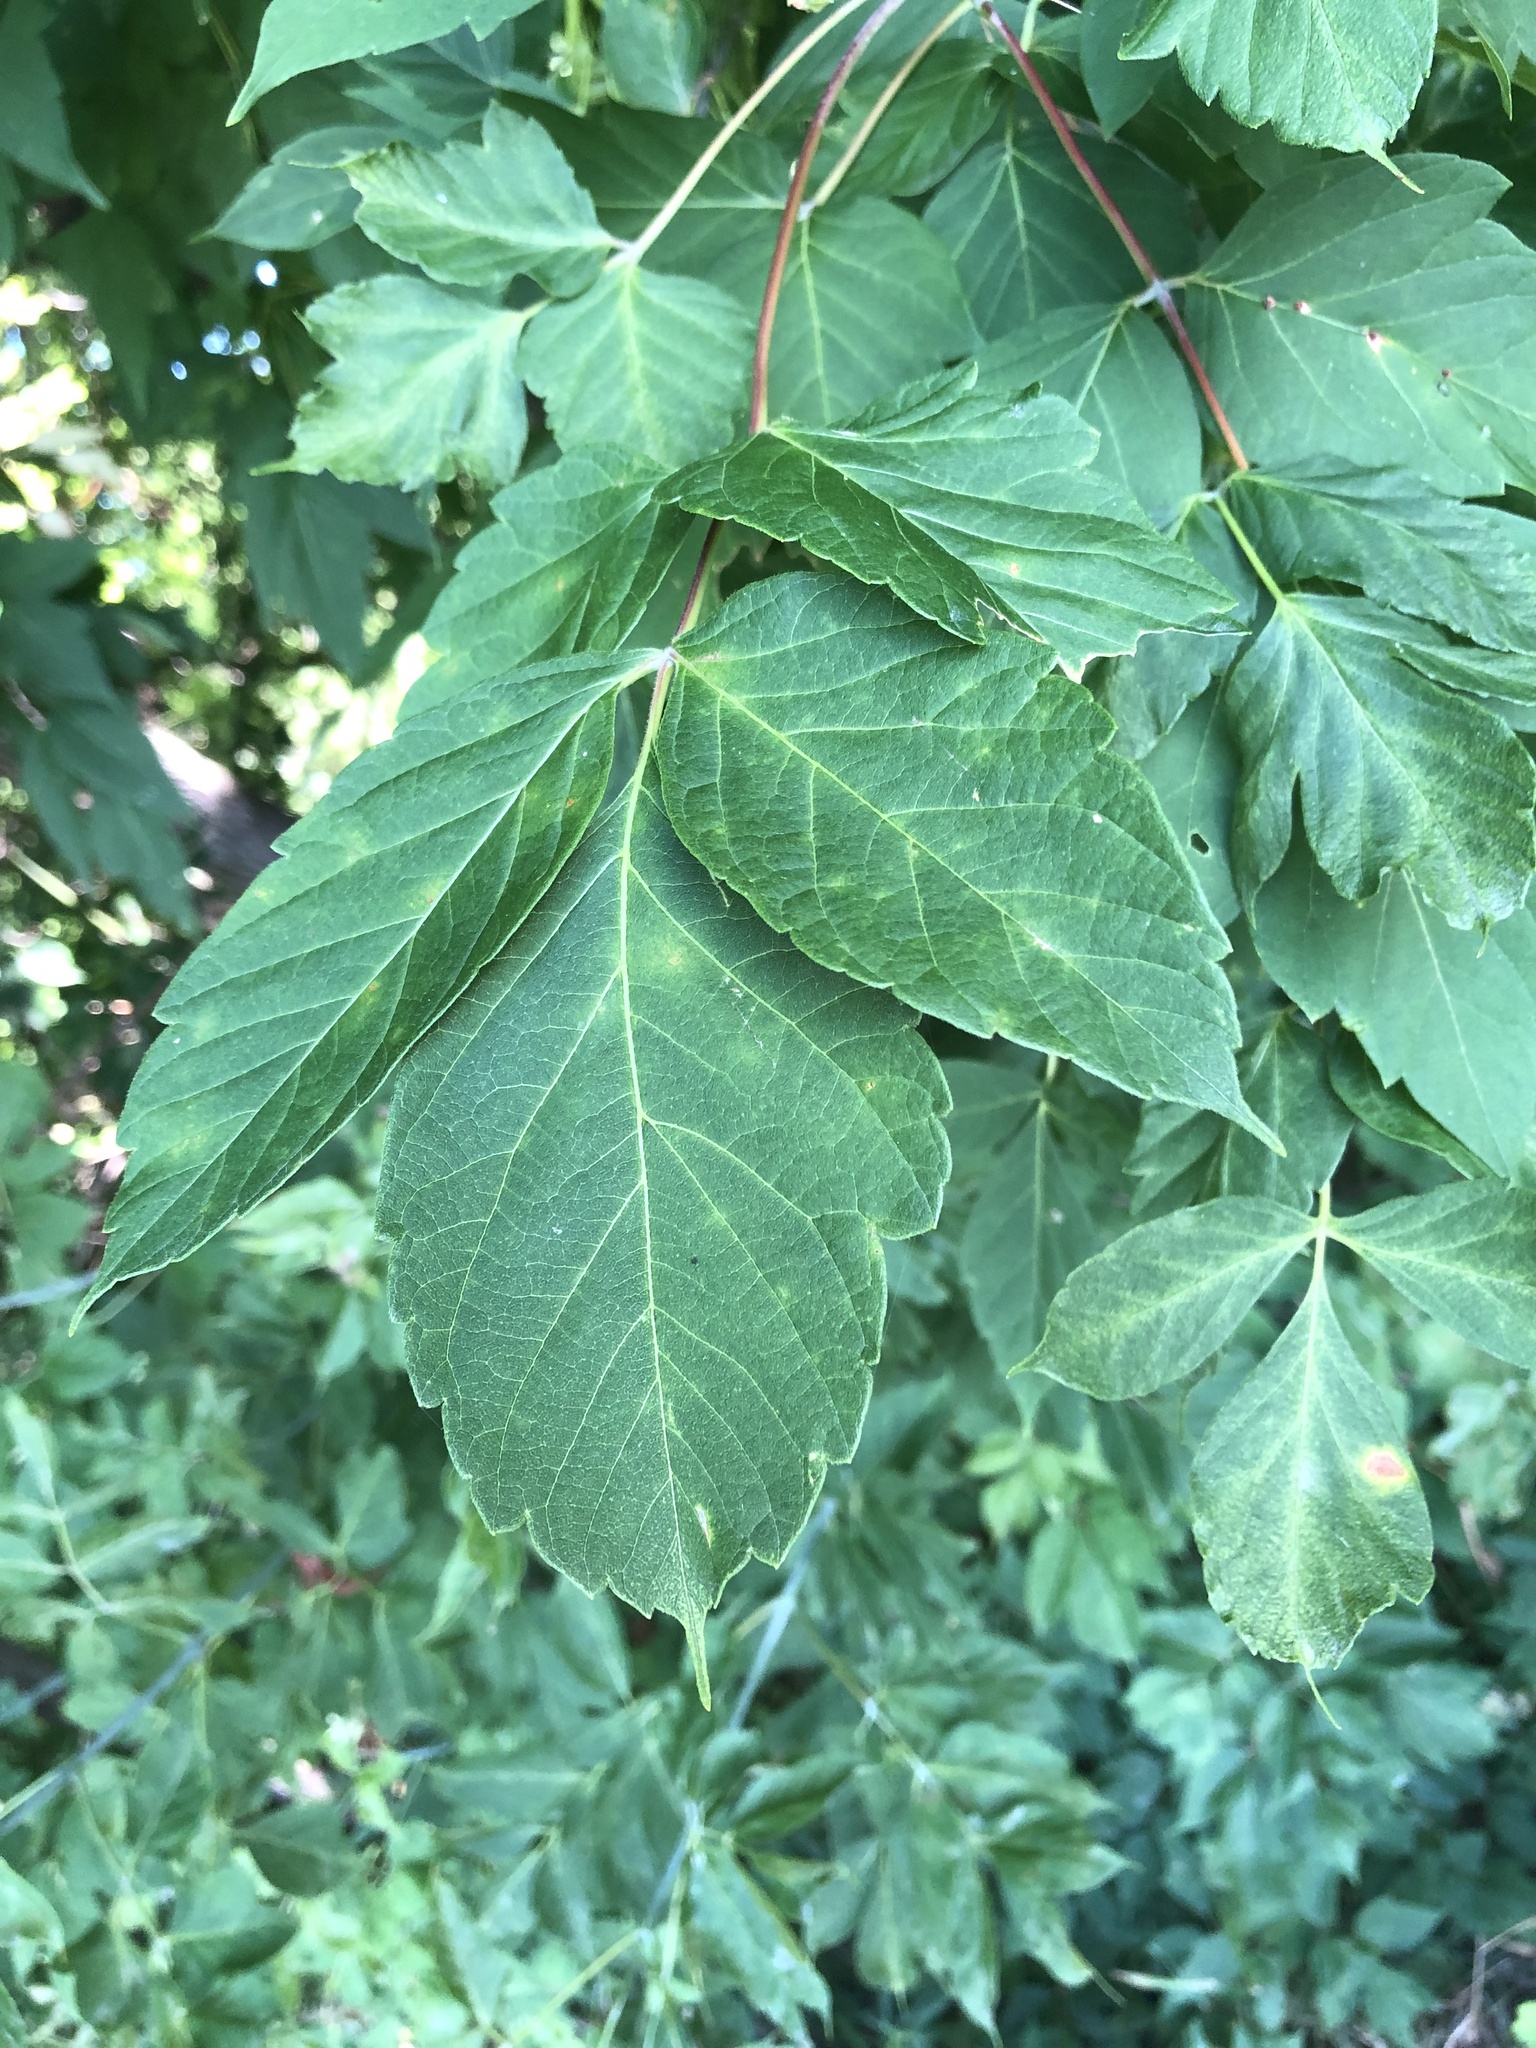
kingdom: Plantae
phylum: Tracheophyta
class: Magnoliopsida
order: Sapindales
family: Sapindaceae
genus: Acer
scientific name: Acer negundo
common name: Ashleaf maple
